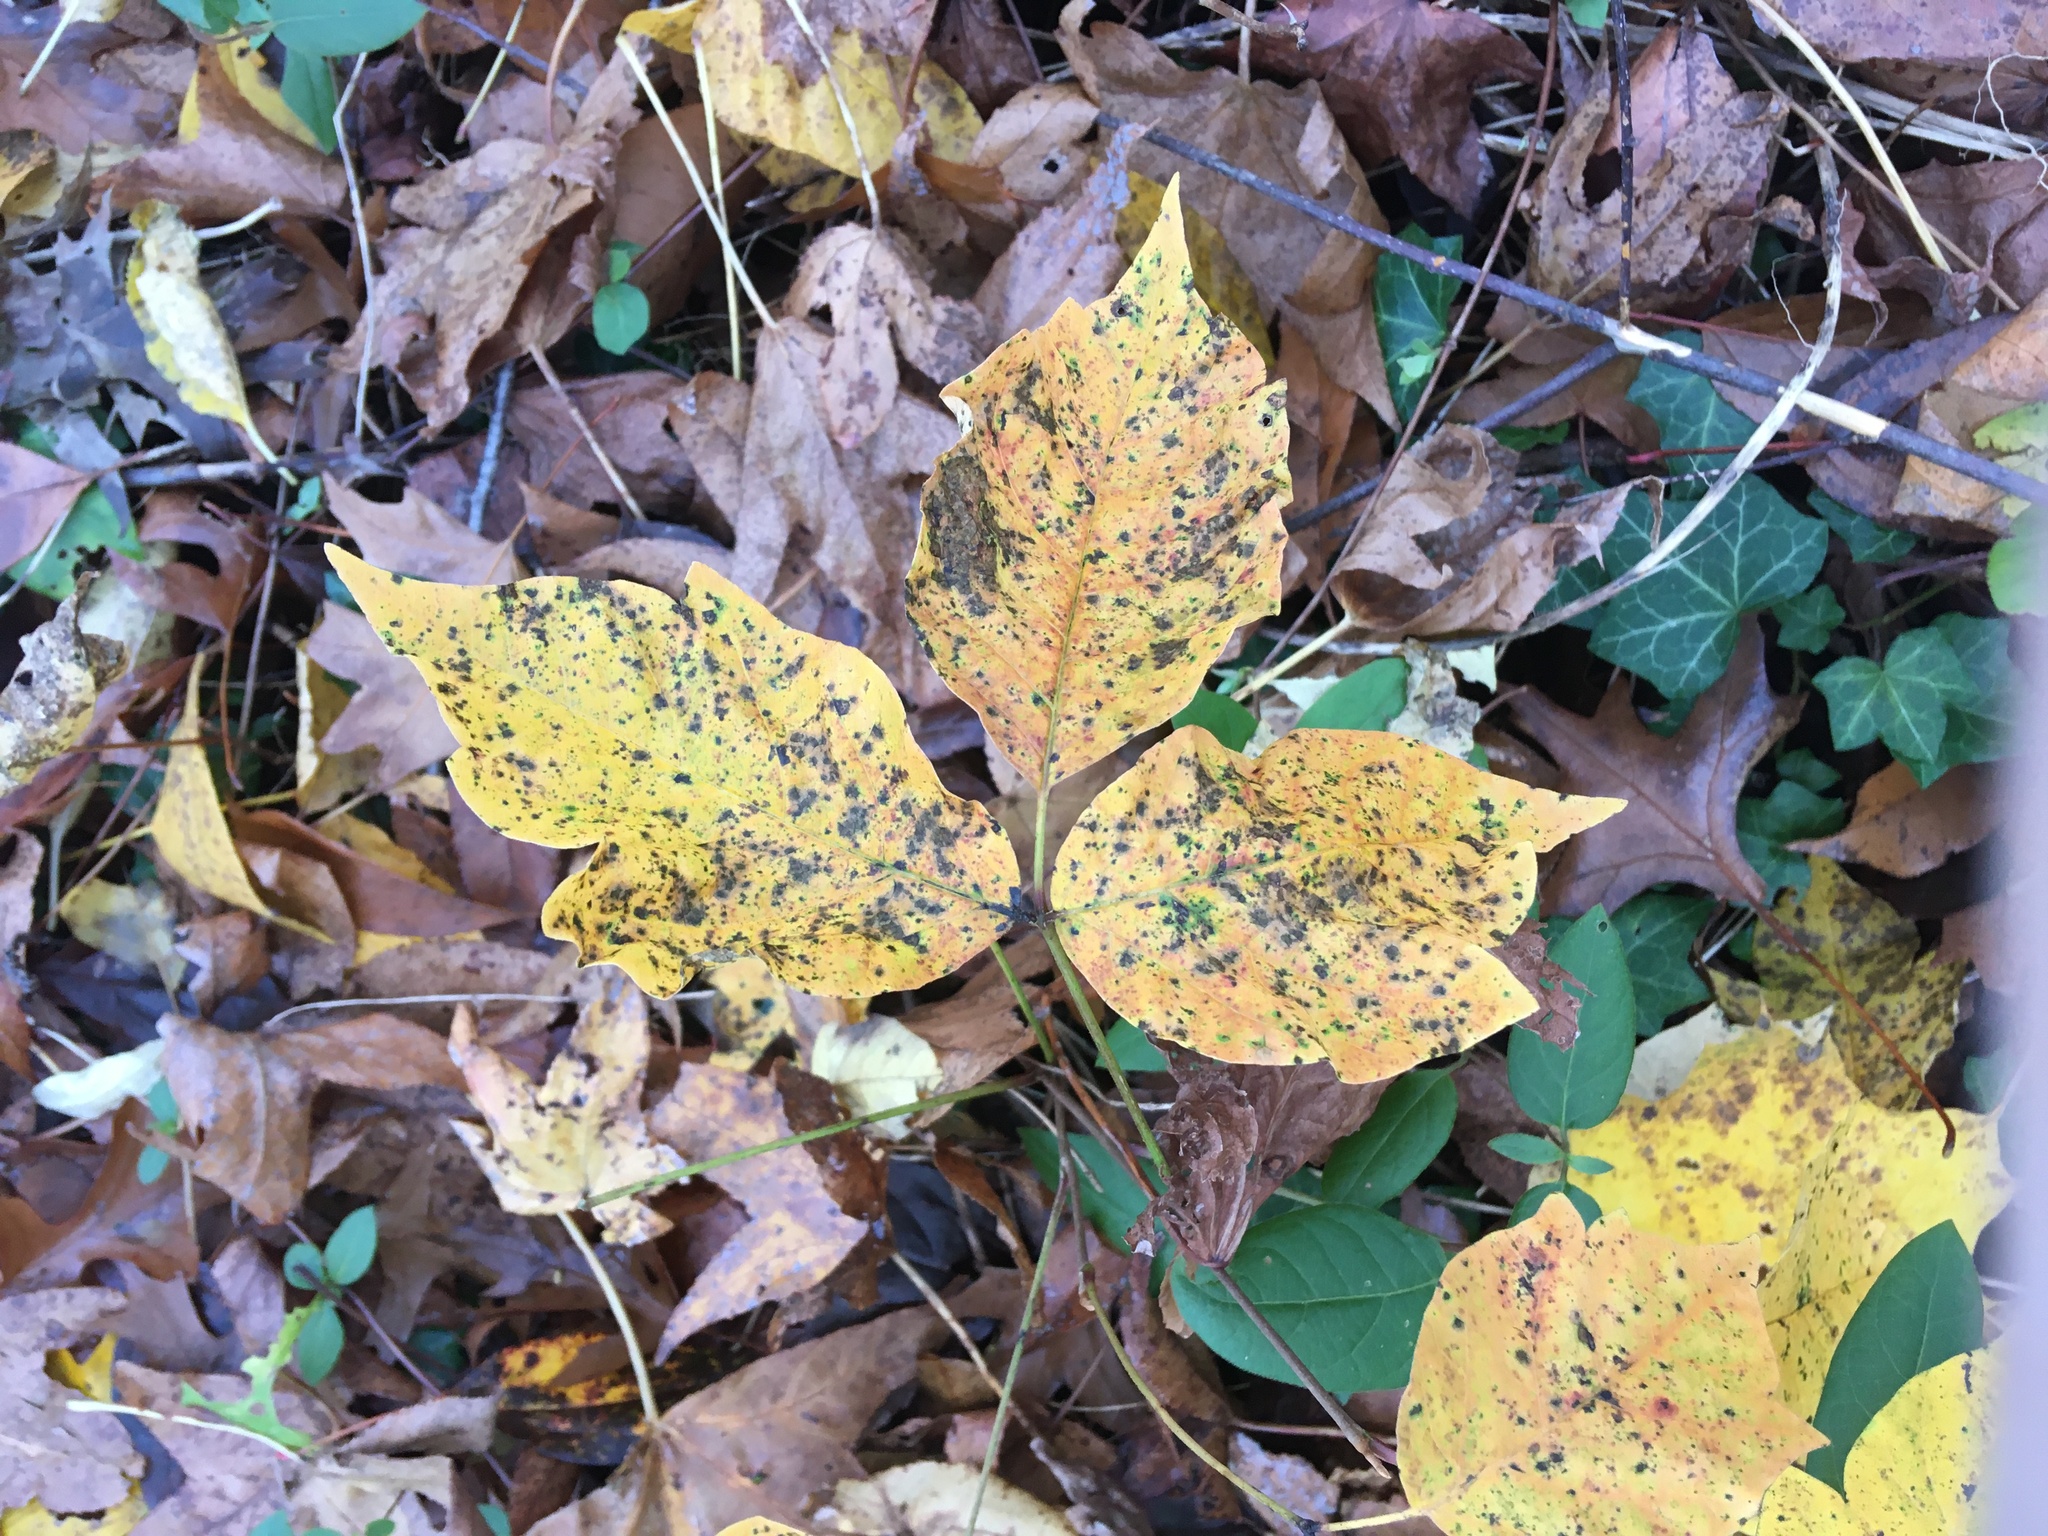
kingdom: Plantae
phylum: Tracheophyta
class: Magnoliopsida
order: Sapindales
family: Anacardiaceae
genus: Toxicodendron
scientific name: Toxicodendron radicans
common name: Poison ivy
